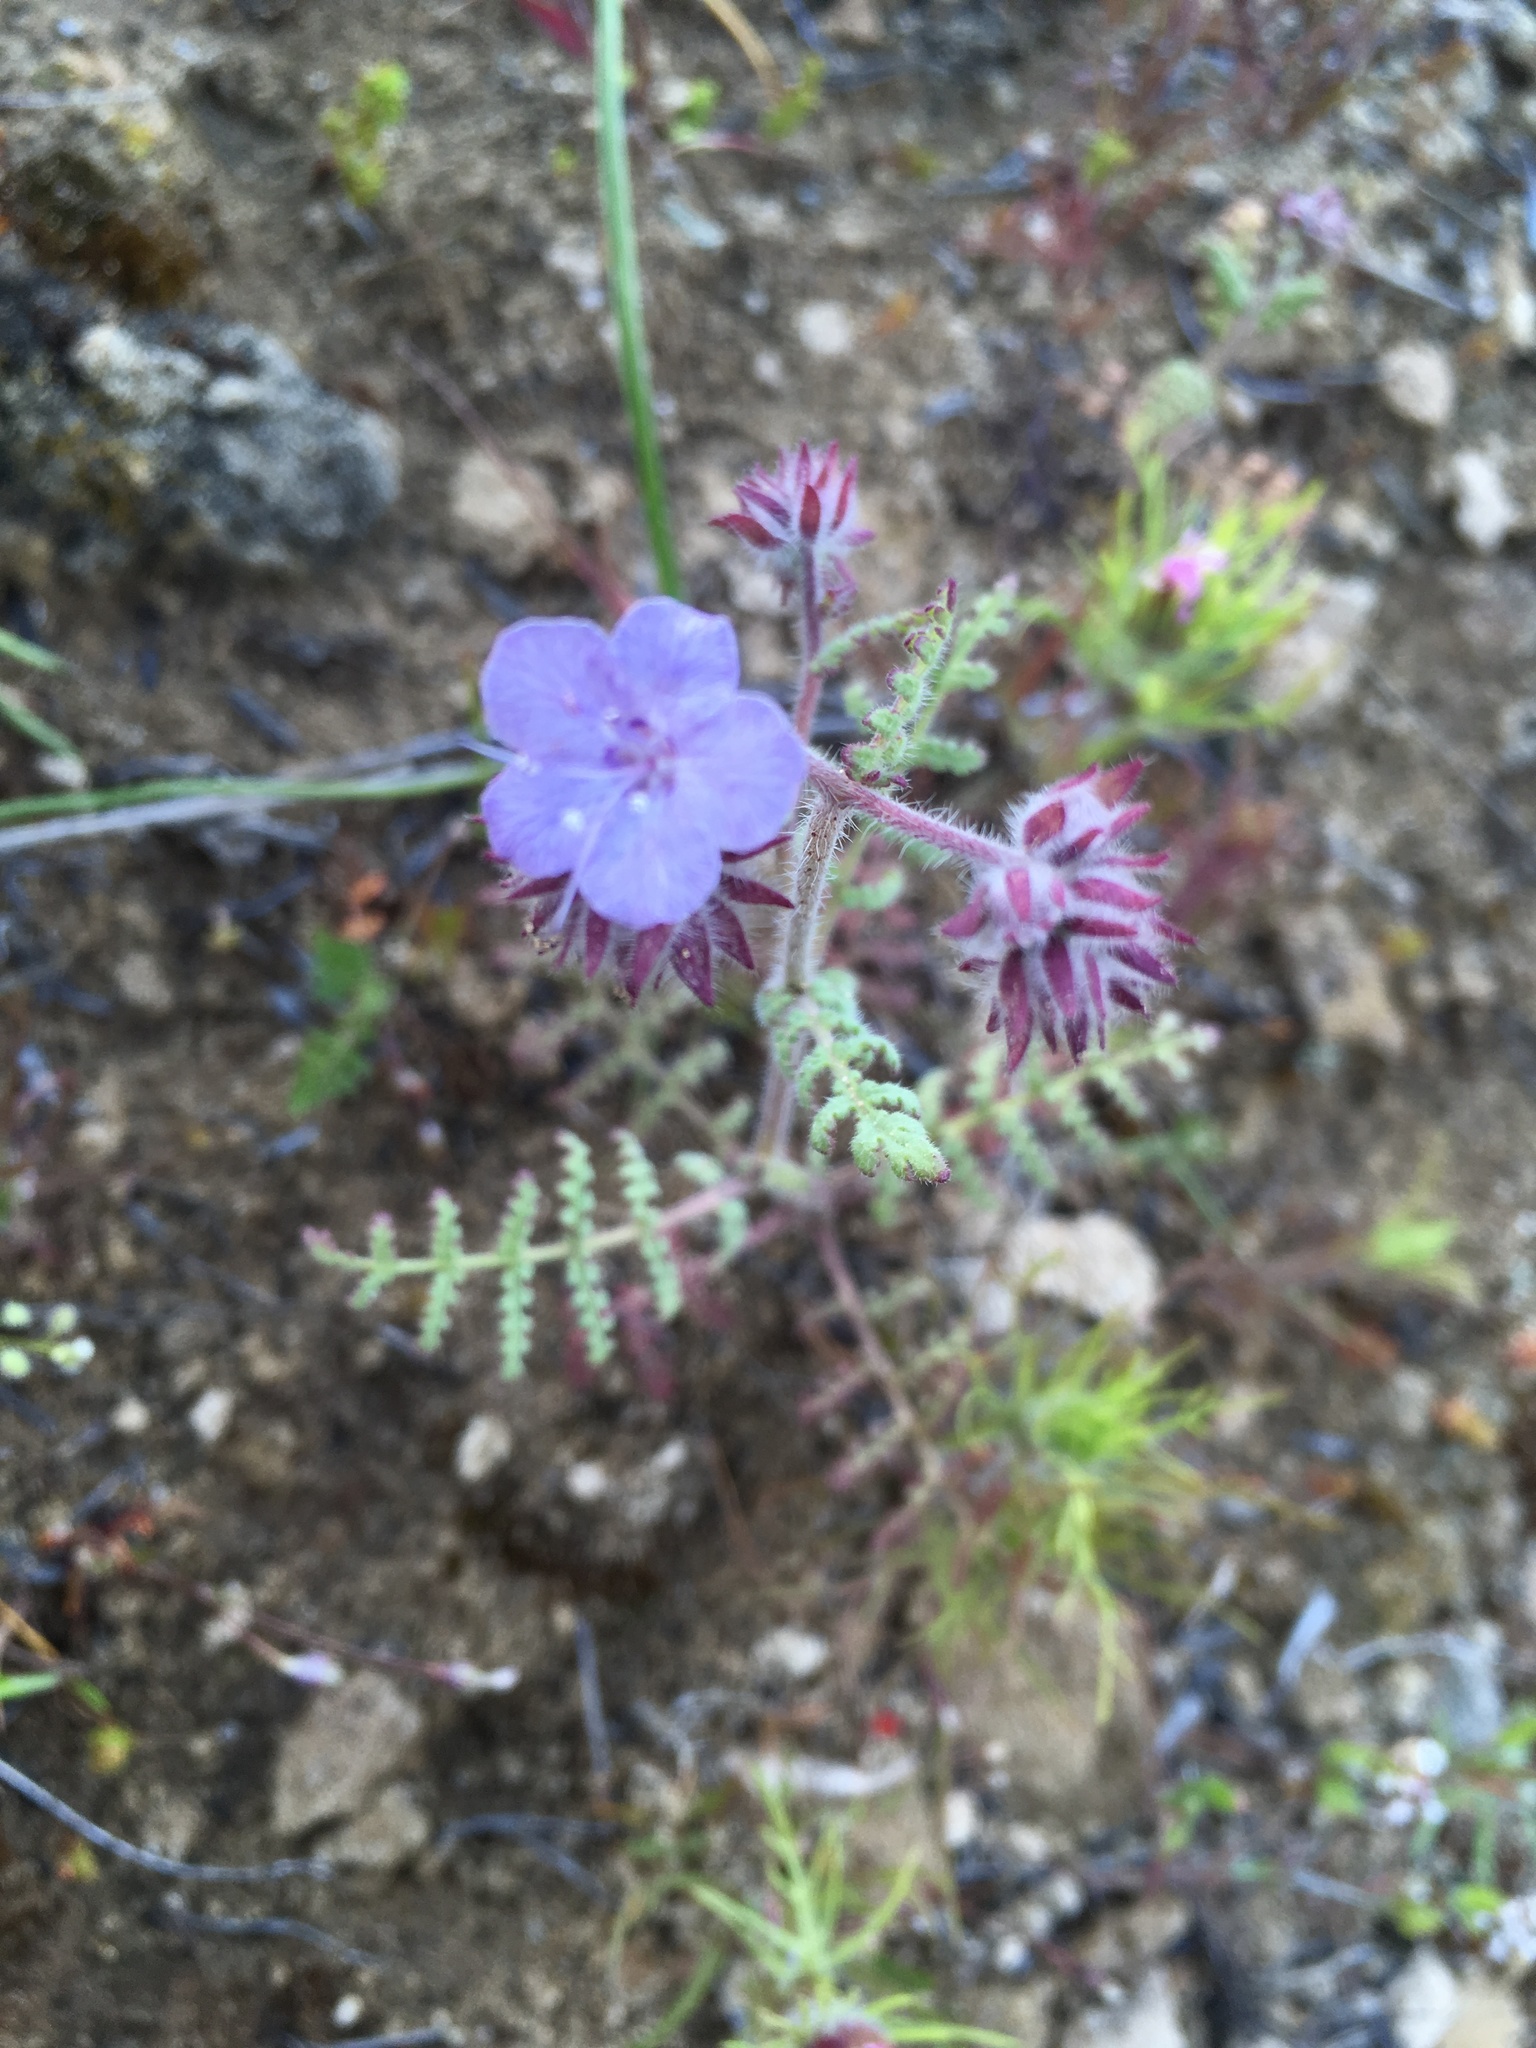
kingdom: Plantae
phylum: Tracheophyta
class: Magnoliopsida
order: Boraginales
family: Hydrophyllaceae
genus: Phacelia
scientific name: Phacelia distans
